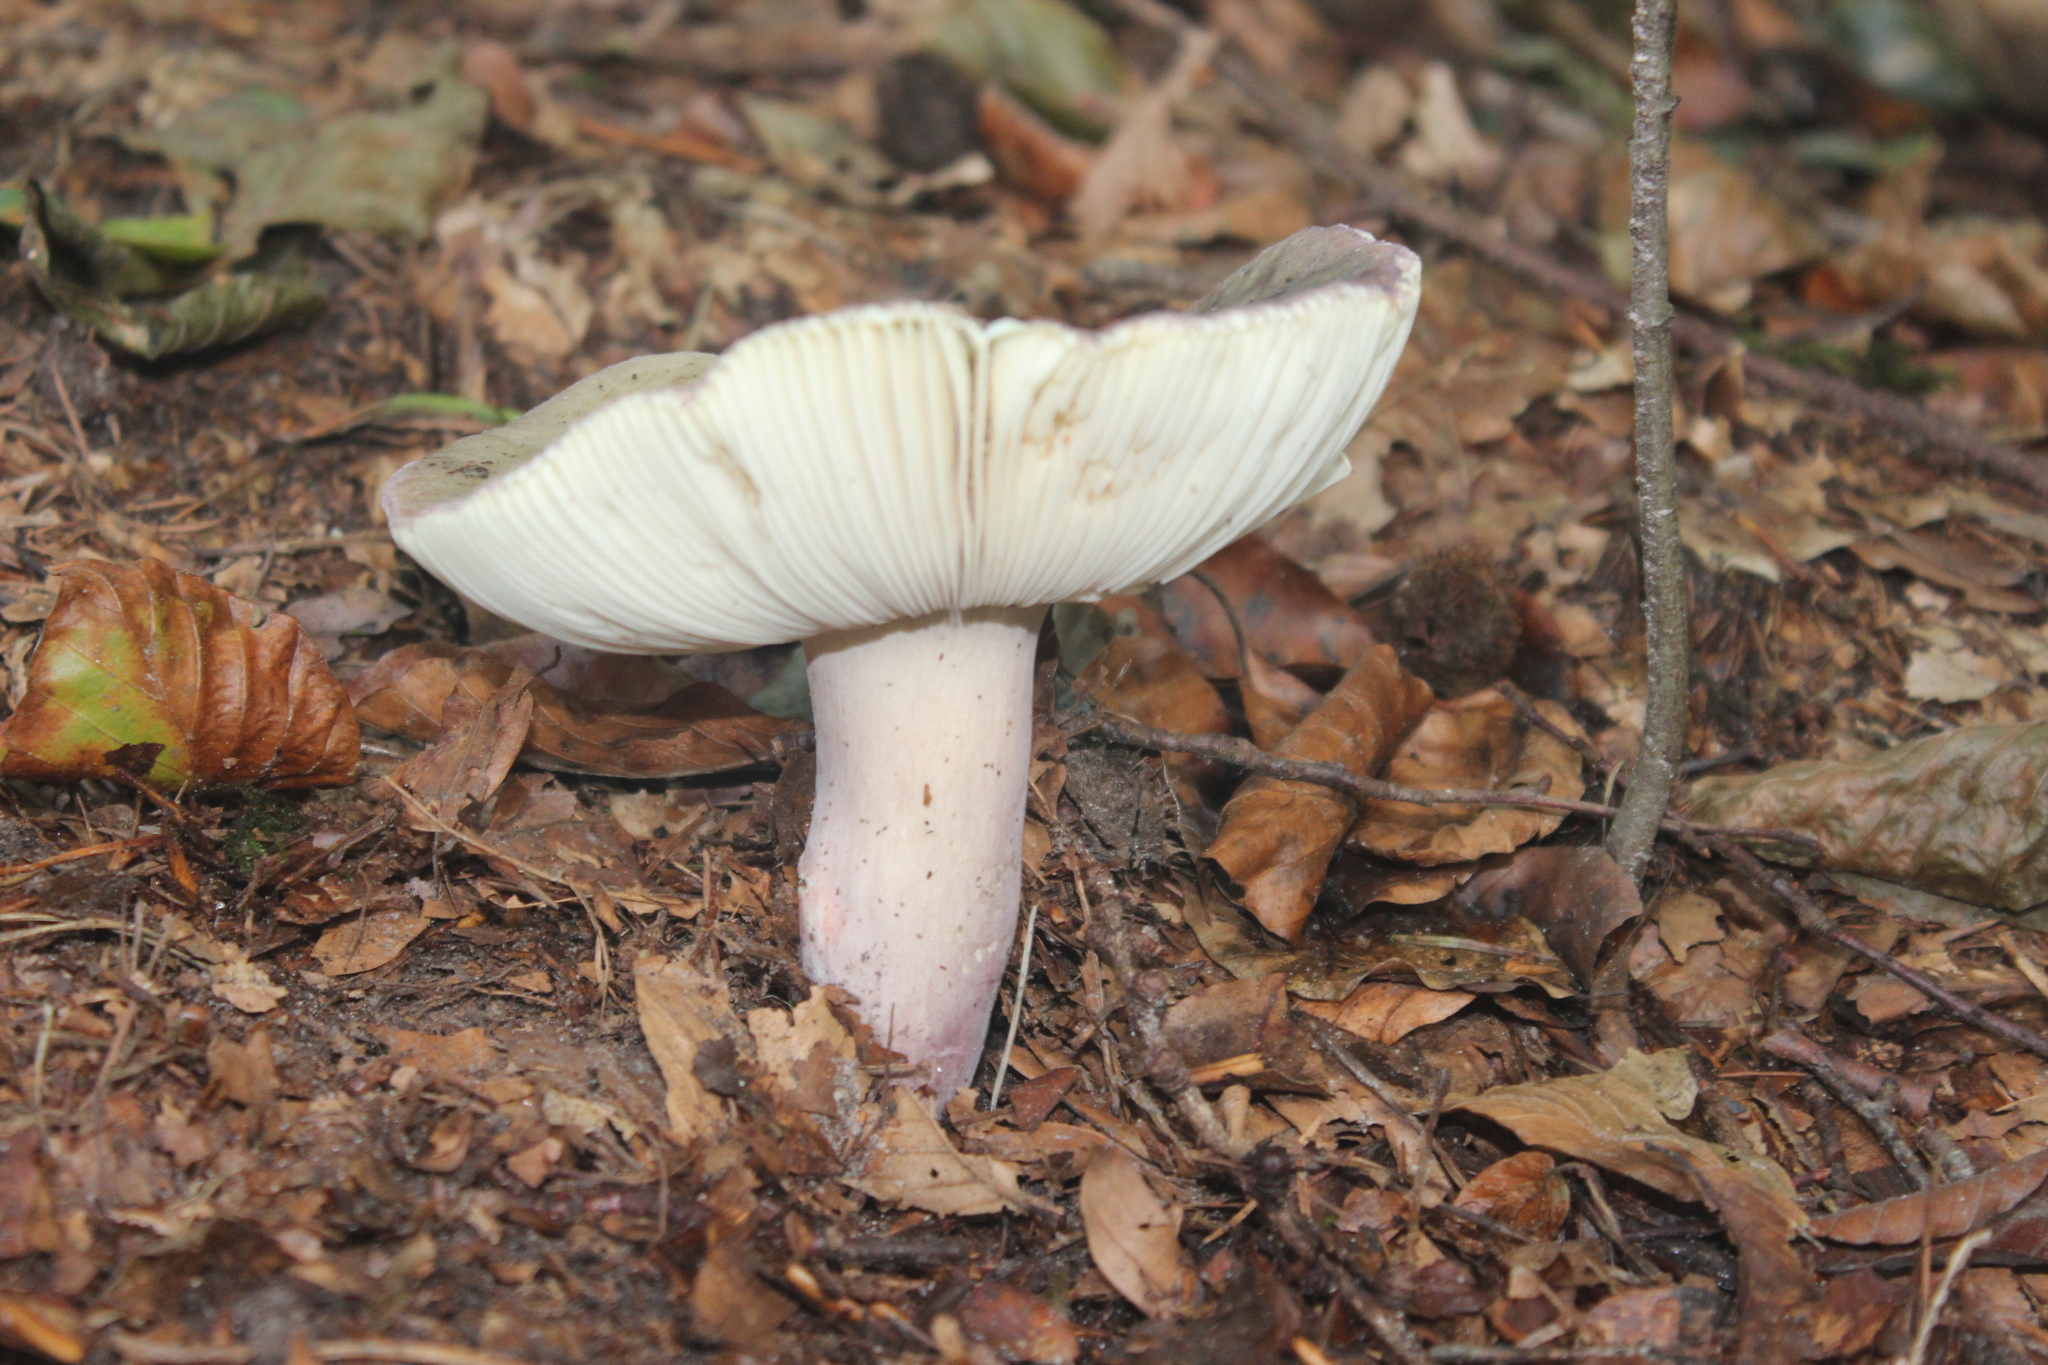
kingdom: Fungi
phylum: Basidiomycota
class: Agaricomycetes
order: Russulales
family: Russulaceae
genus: Russula
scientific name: Russula violeipes
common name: Velvet brittlegill
